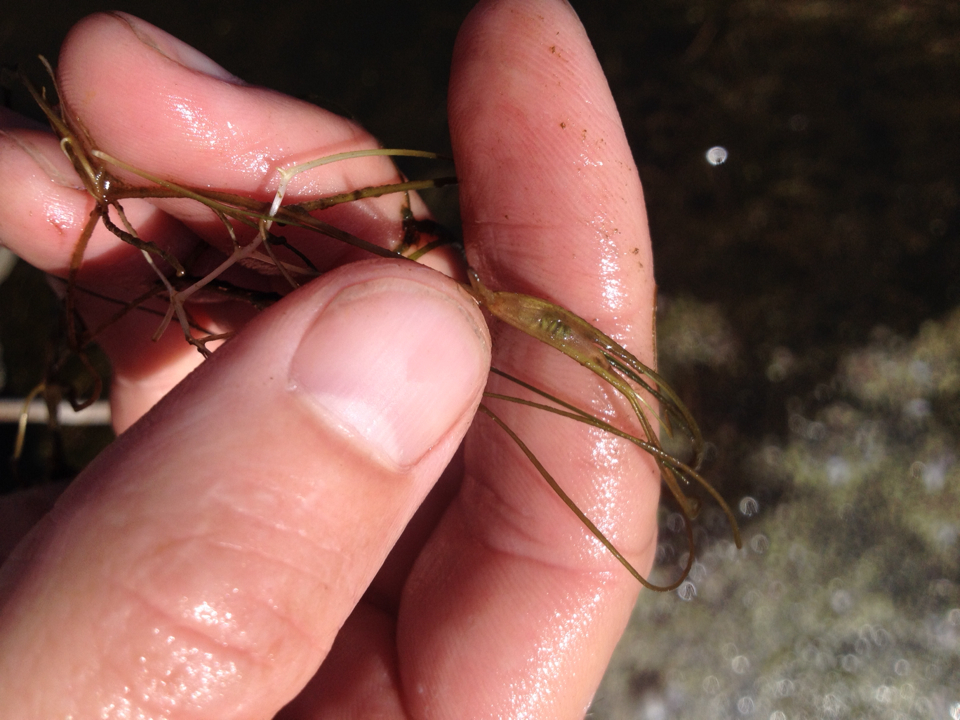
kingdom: Plantae
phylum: Tracheophyta
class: Liliopsida
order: Alismatales
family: Ruppiaceae
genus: Ruppia
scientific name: Ruppia polycarpa
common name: Species code: rp
